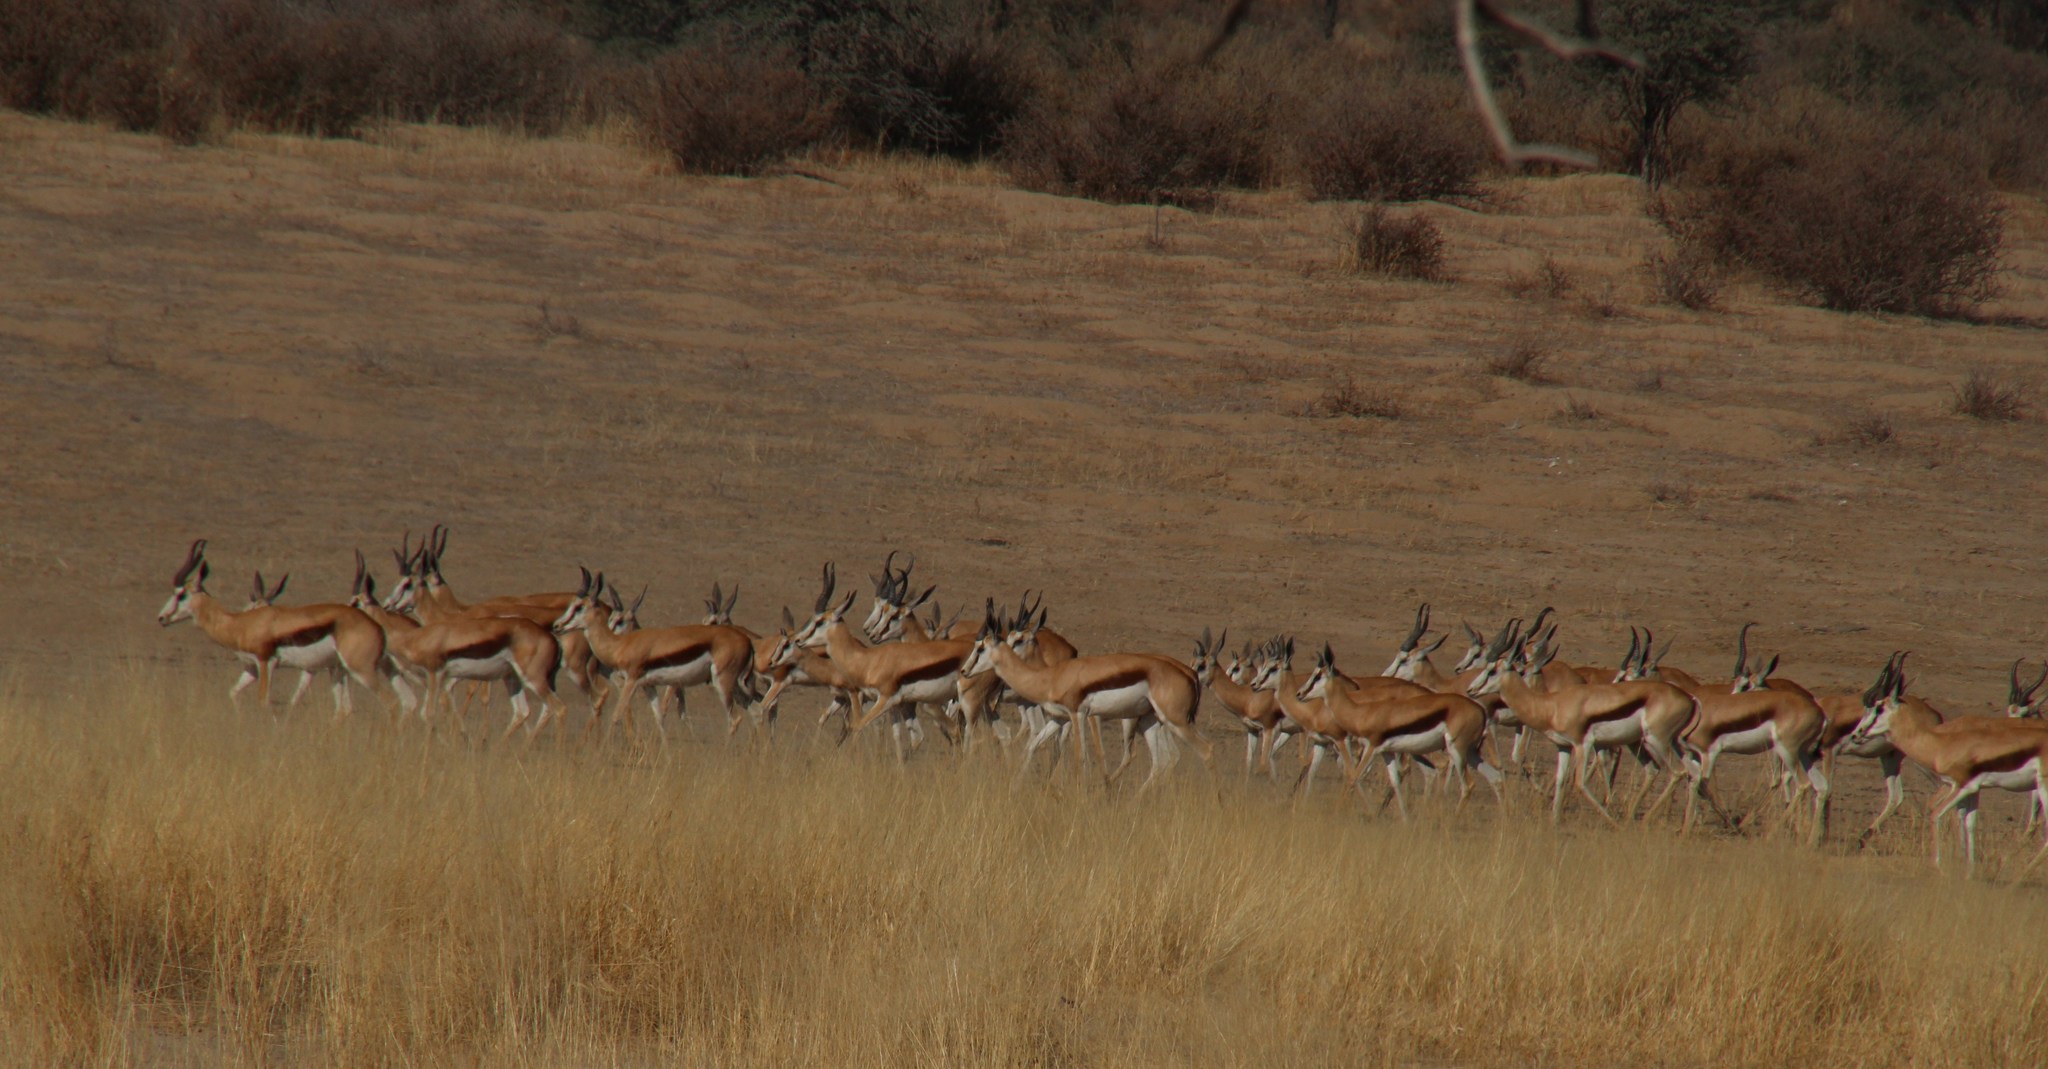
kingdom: Animalia
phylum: Chordata
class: Mammalia
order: Artiodactyla
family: Bovidae
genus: Antidorcas
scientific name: Antidorcas marsupialis
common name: Springbok
